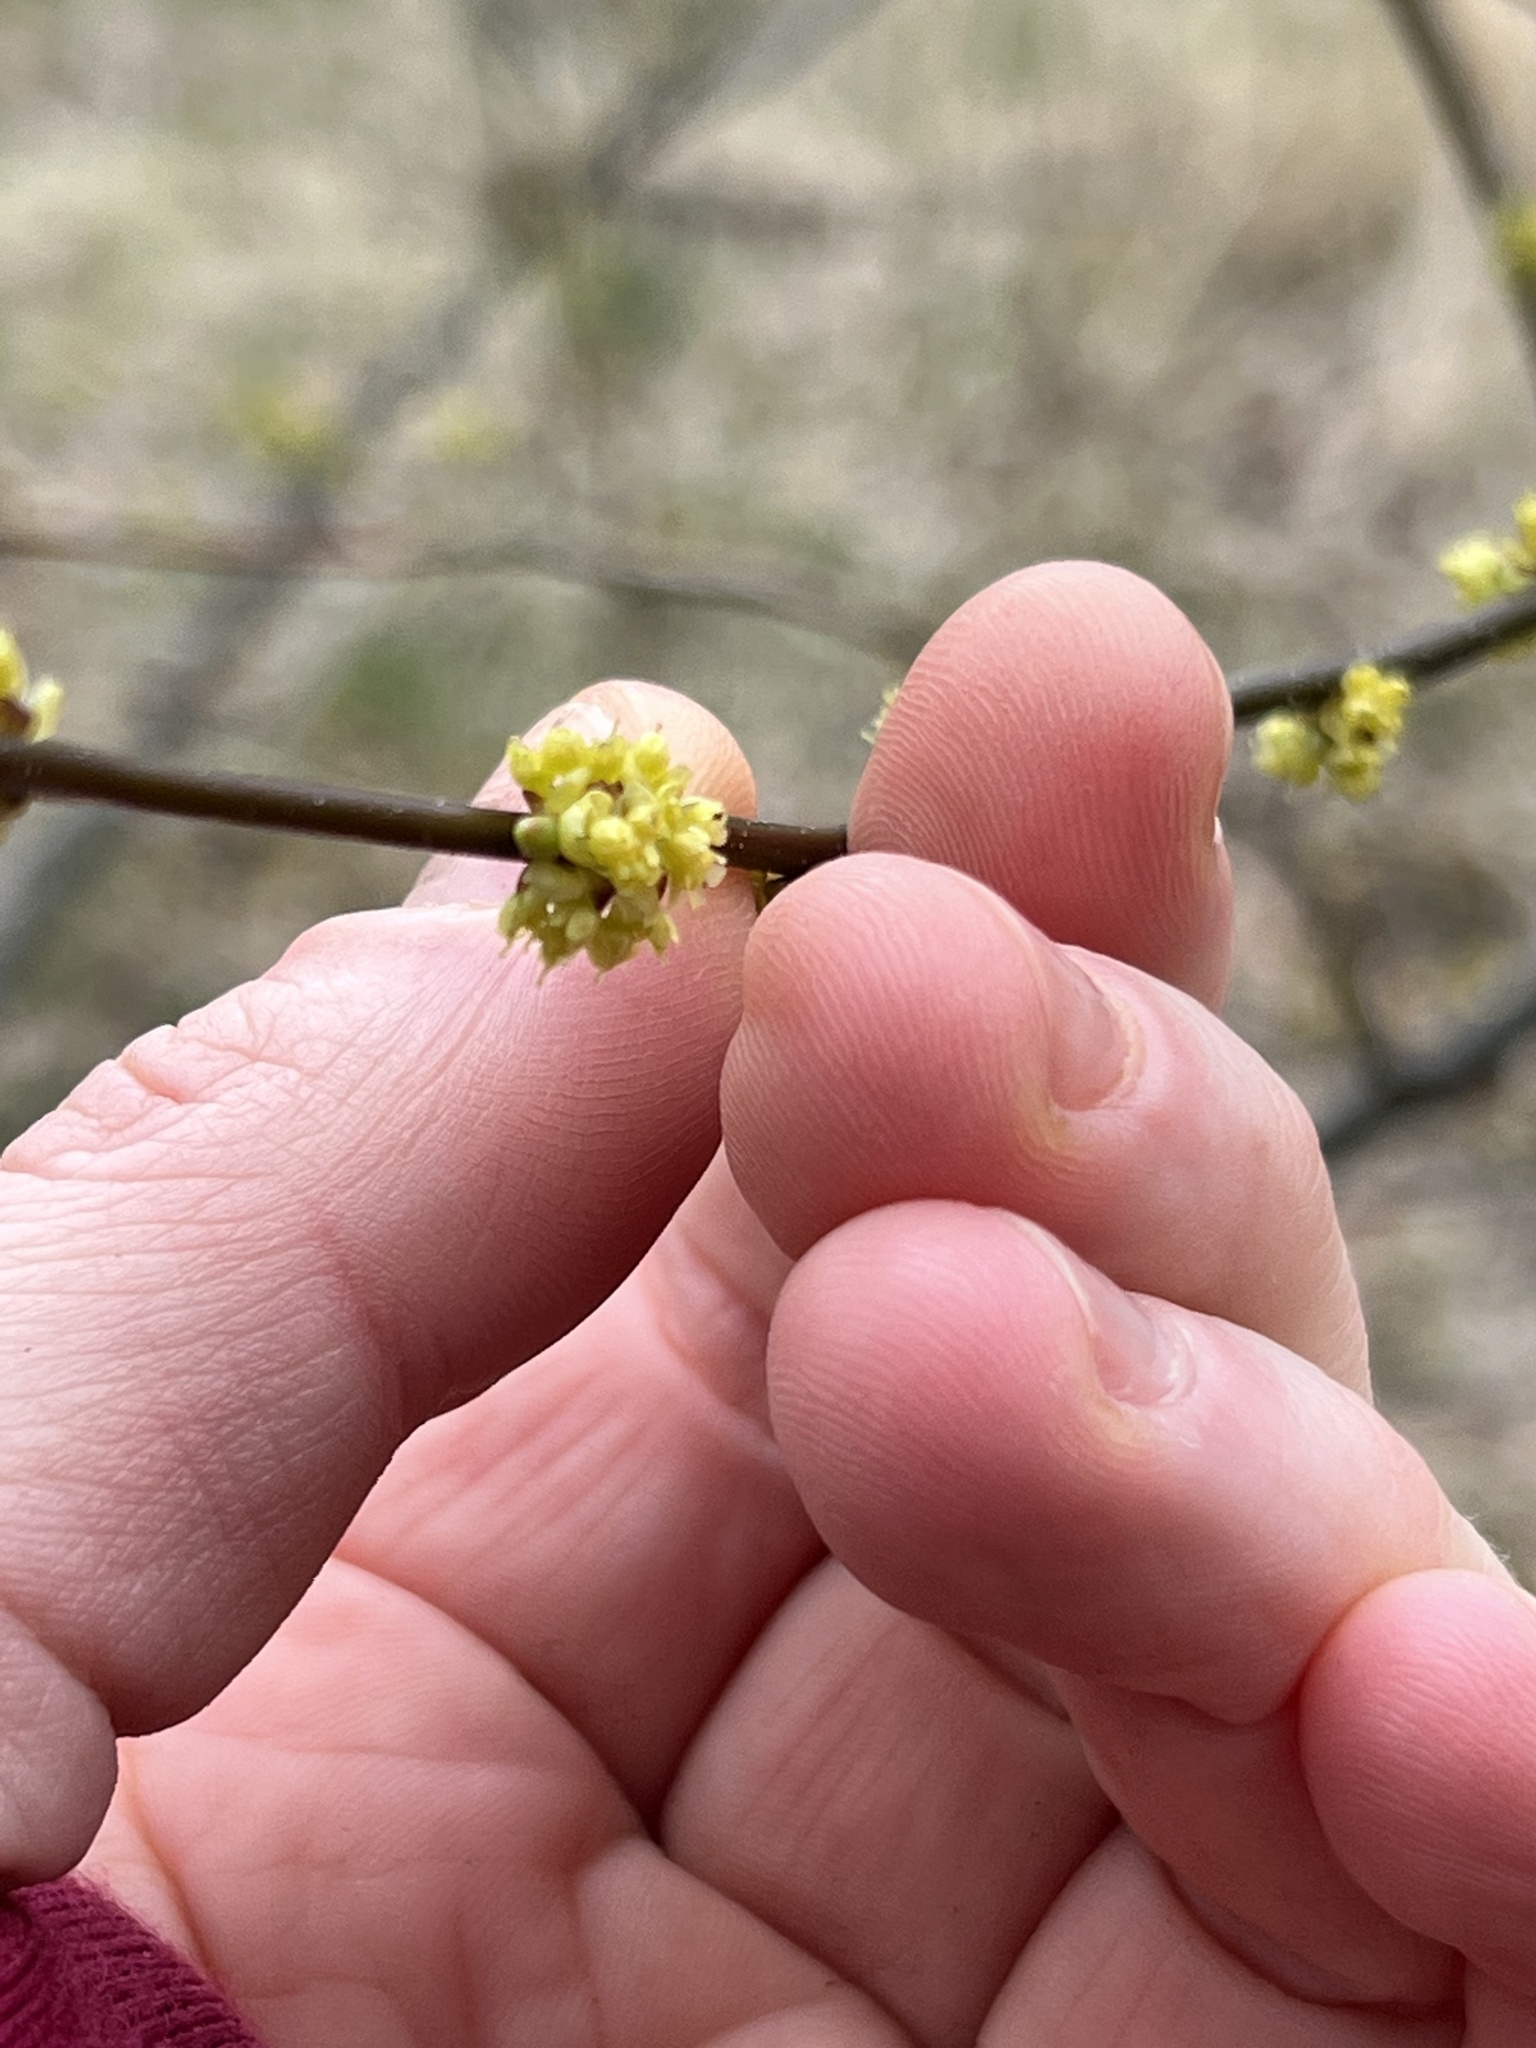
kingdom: Plantae
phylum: Tracheophyta
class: Magnoliopsida
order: Laurales
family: Lauraceae
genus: Lindera
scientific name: Lindera benzoin
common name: Spicebush
